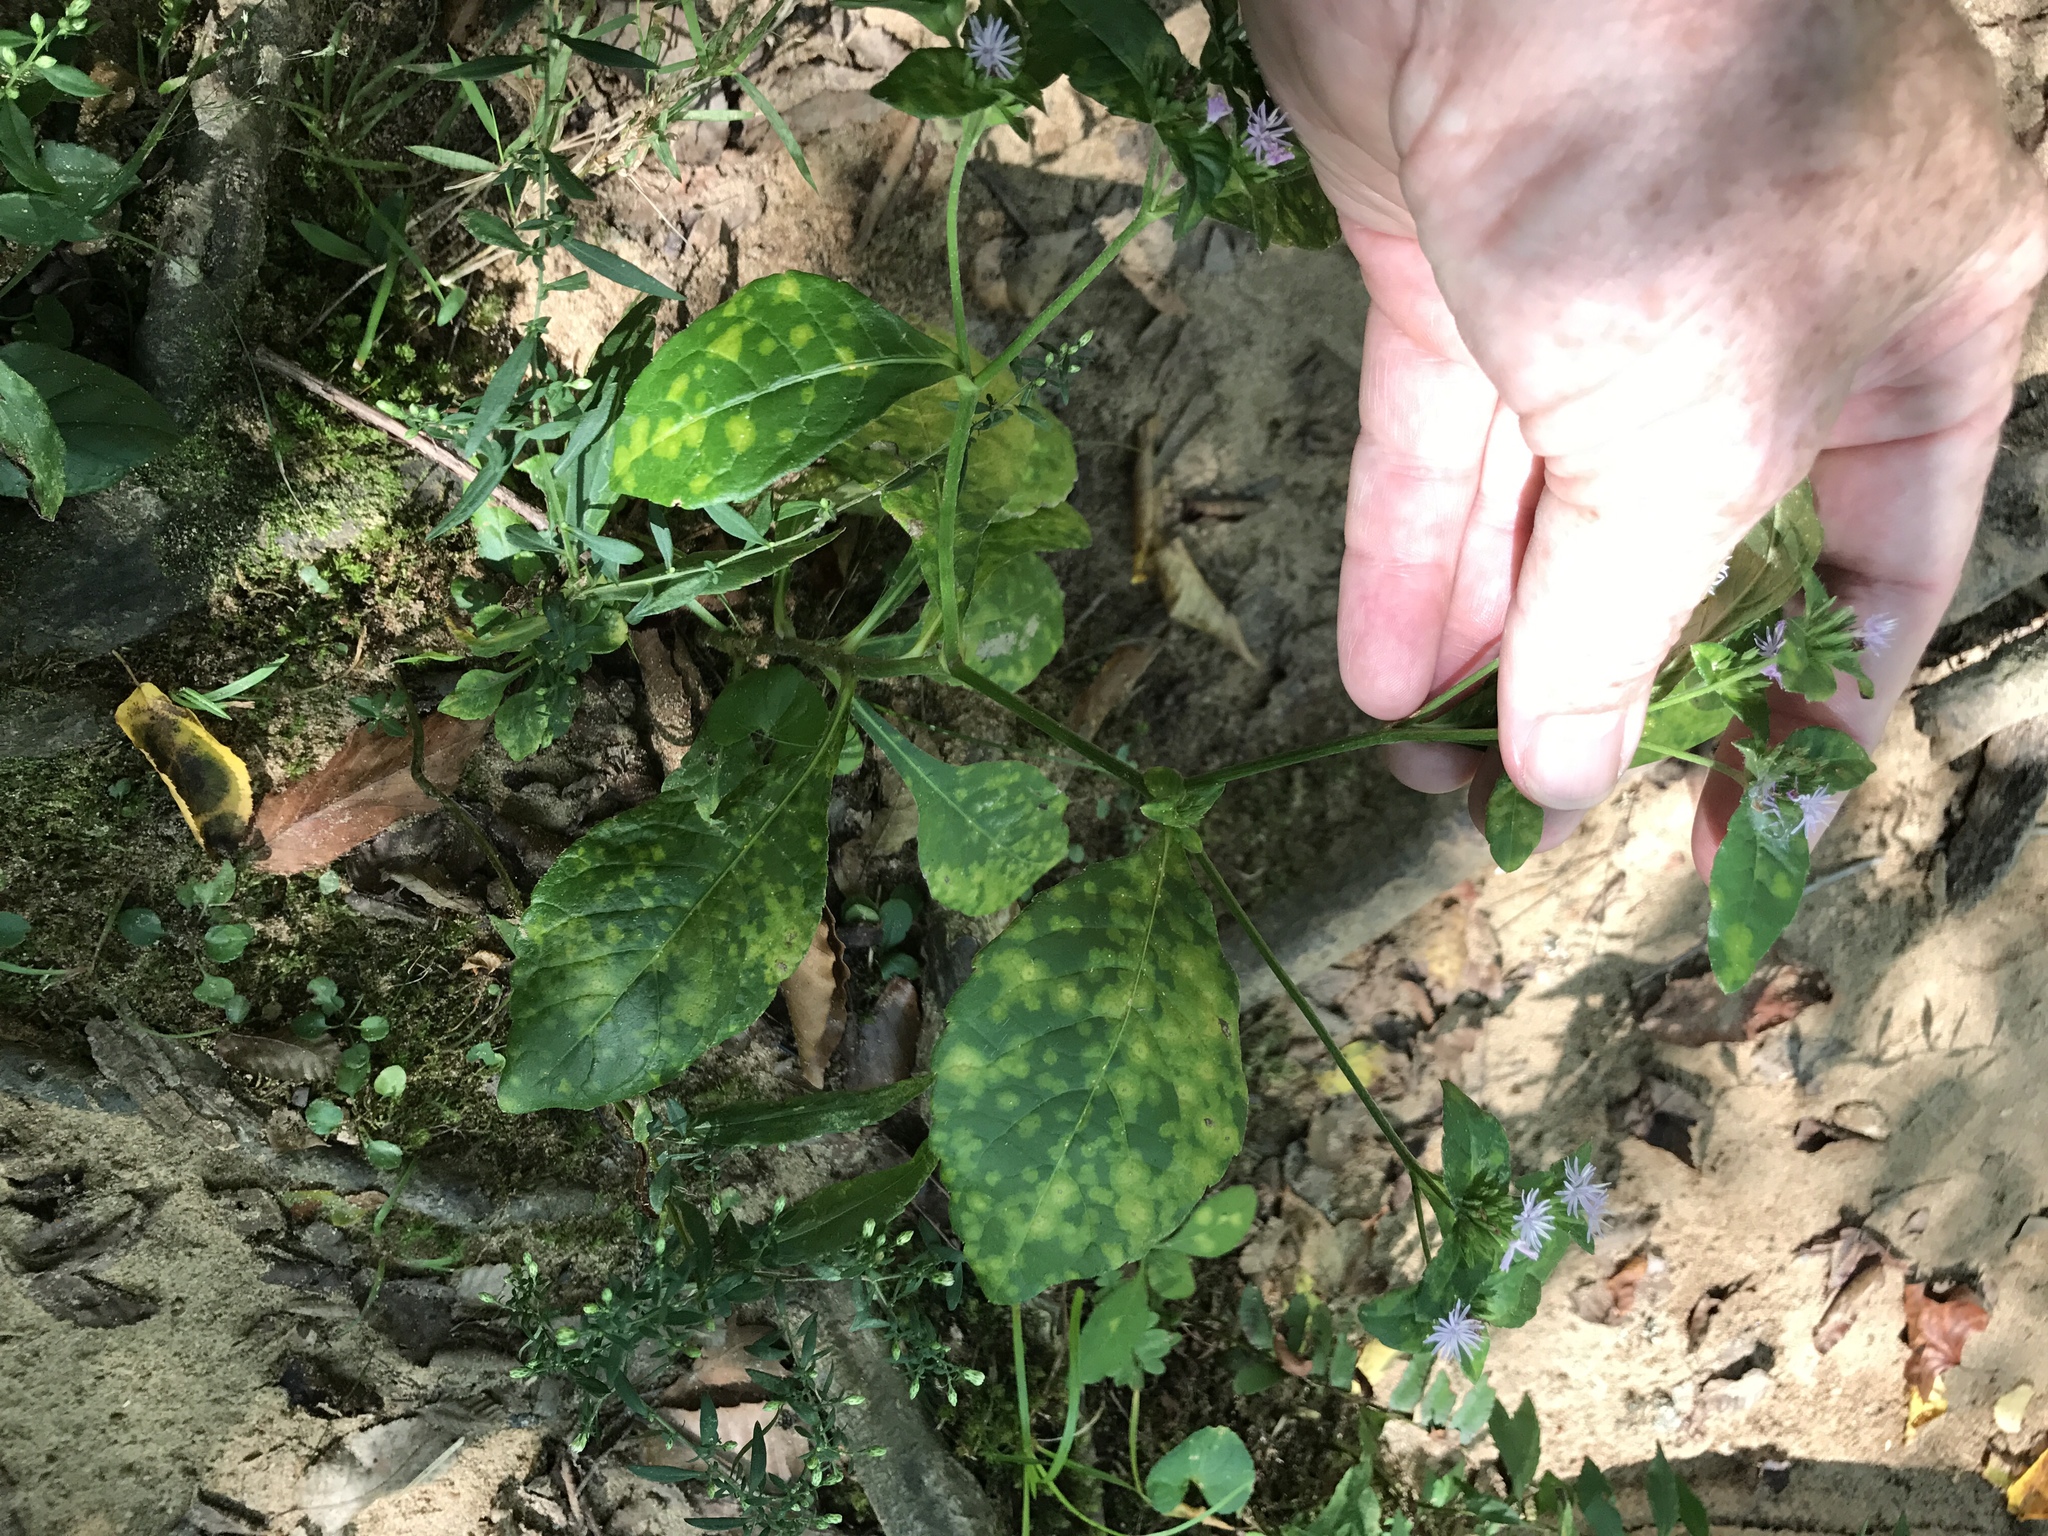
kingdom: Plantae
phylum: Tracheophyta
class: Magnoliopsida
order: Asterales
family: Asteraceae
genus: Elephantopus
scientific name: Elephantopus carolinianus
